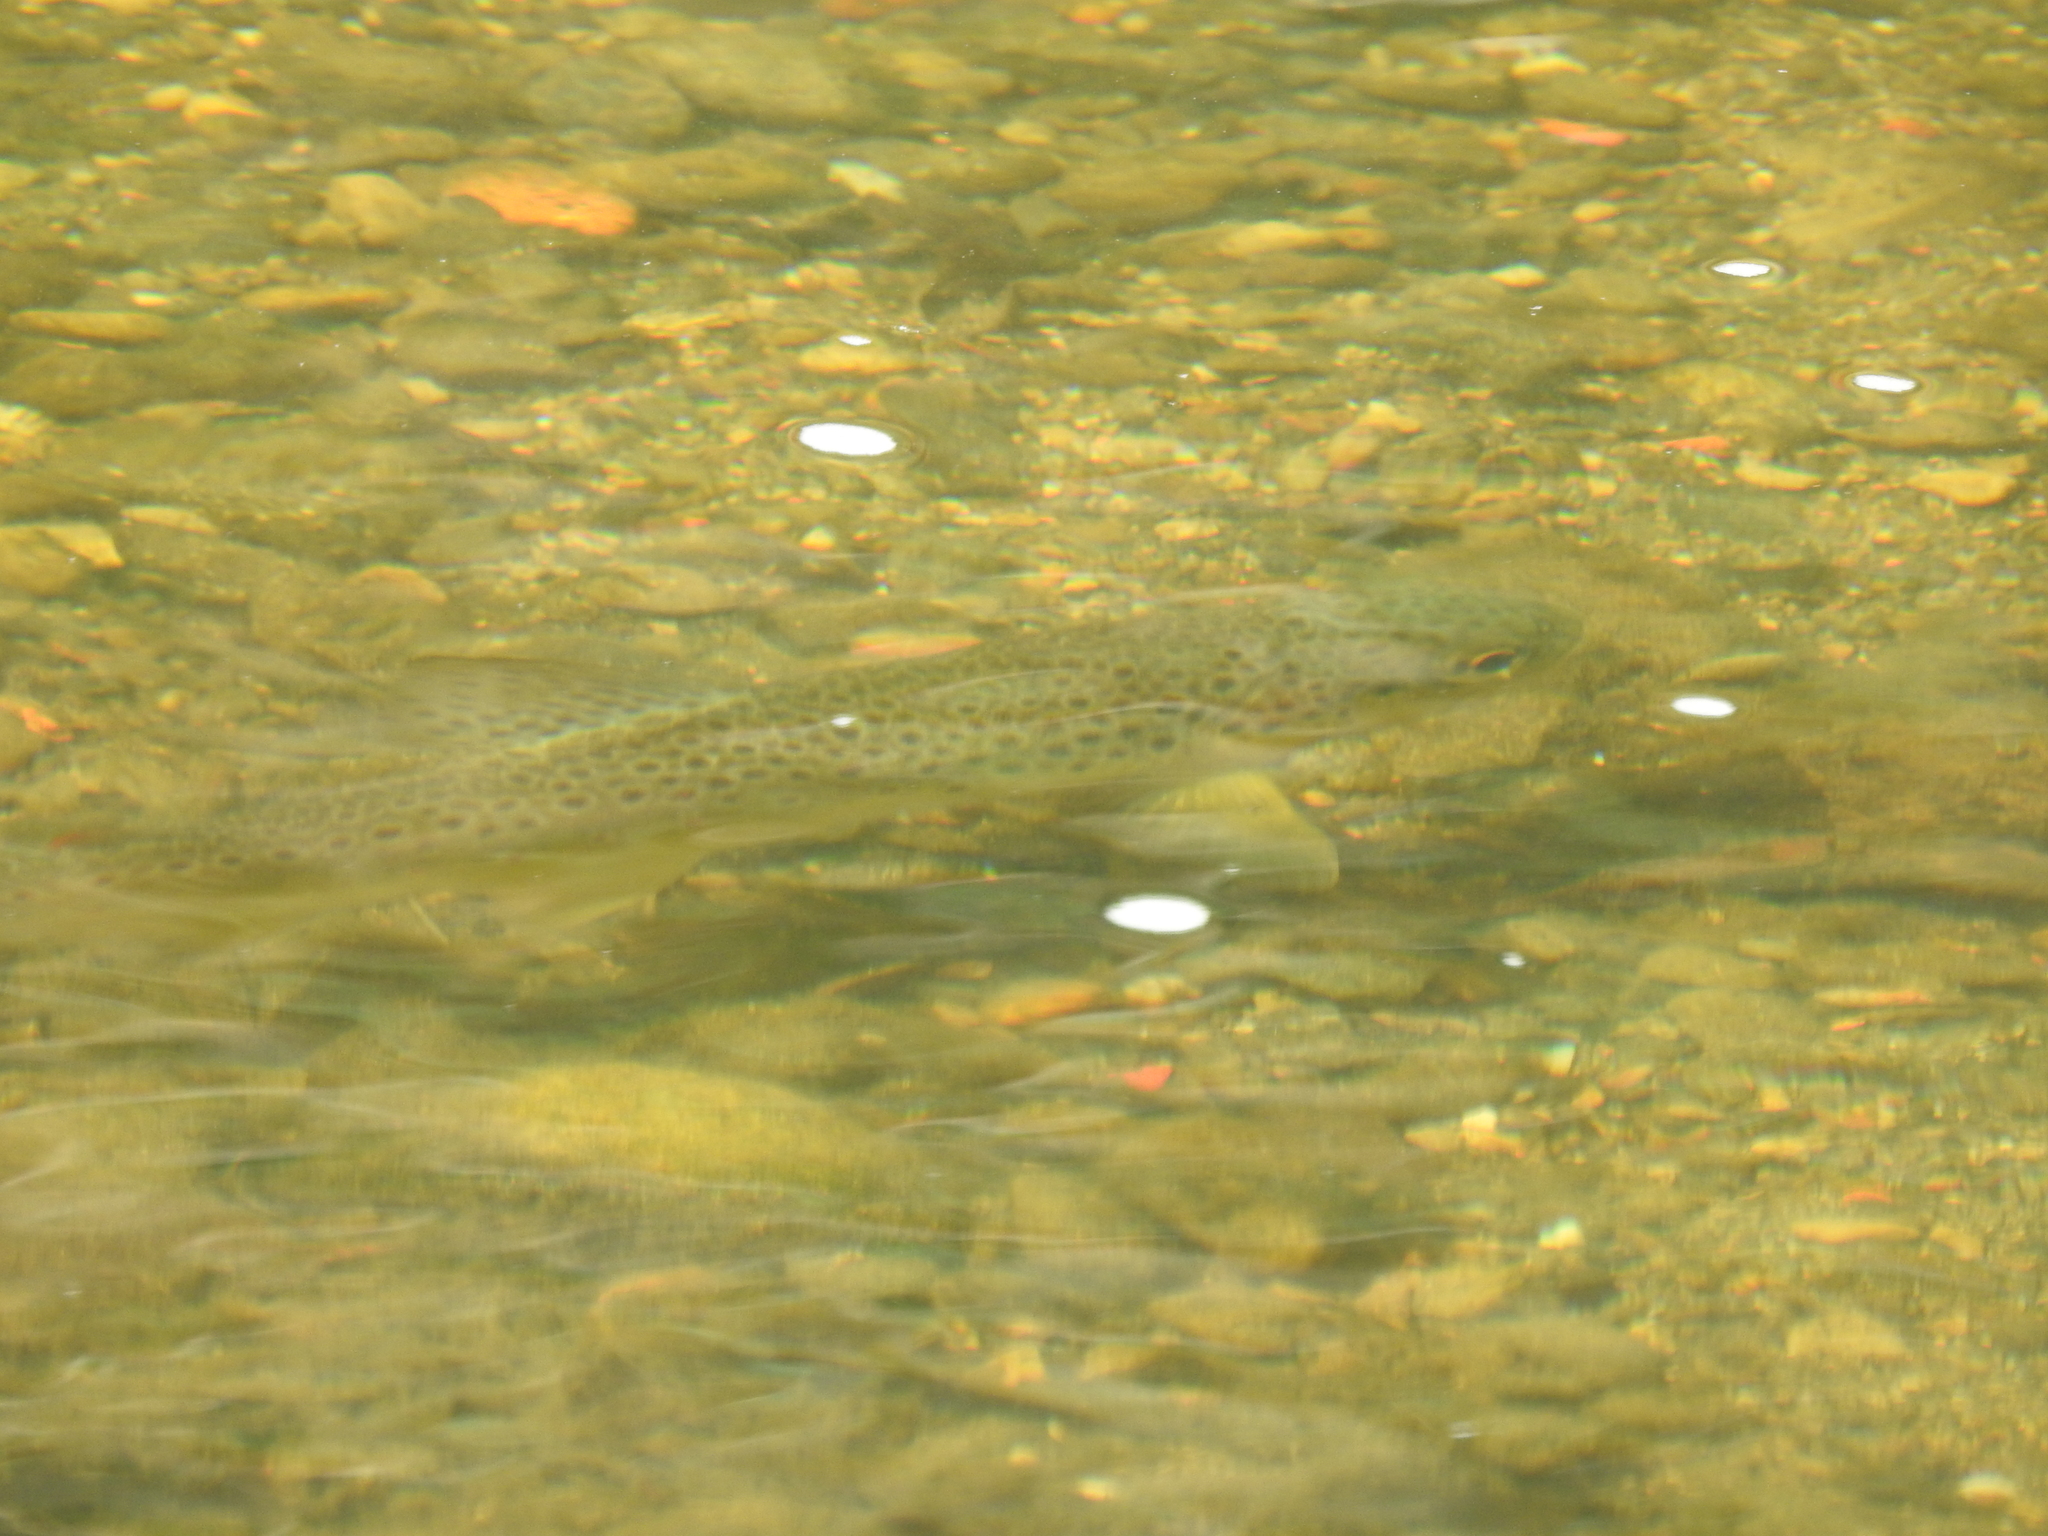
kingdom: Animalia
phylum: Chordata
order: Salmoniformes
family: Salmonidae
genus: Salmo
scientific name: Salmo trutta
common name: Brown trout
